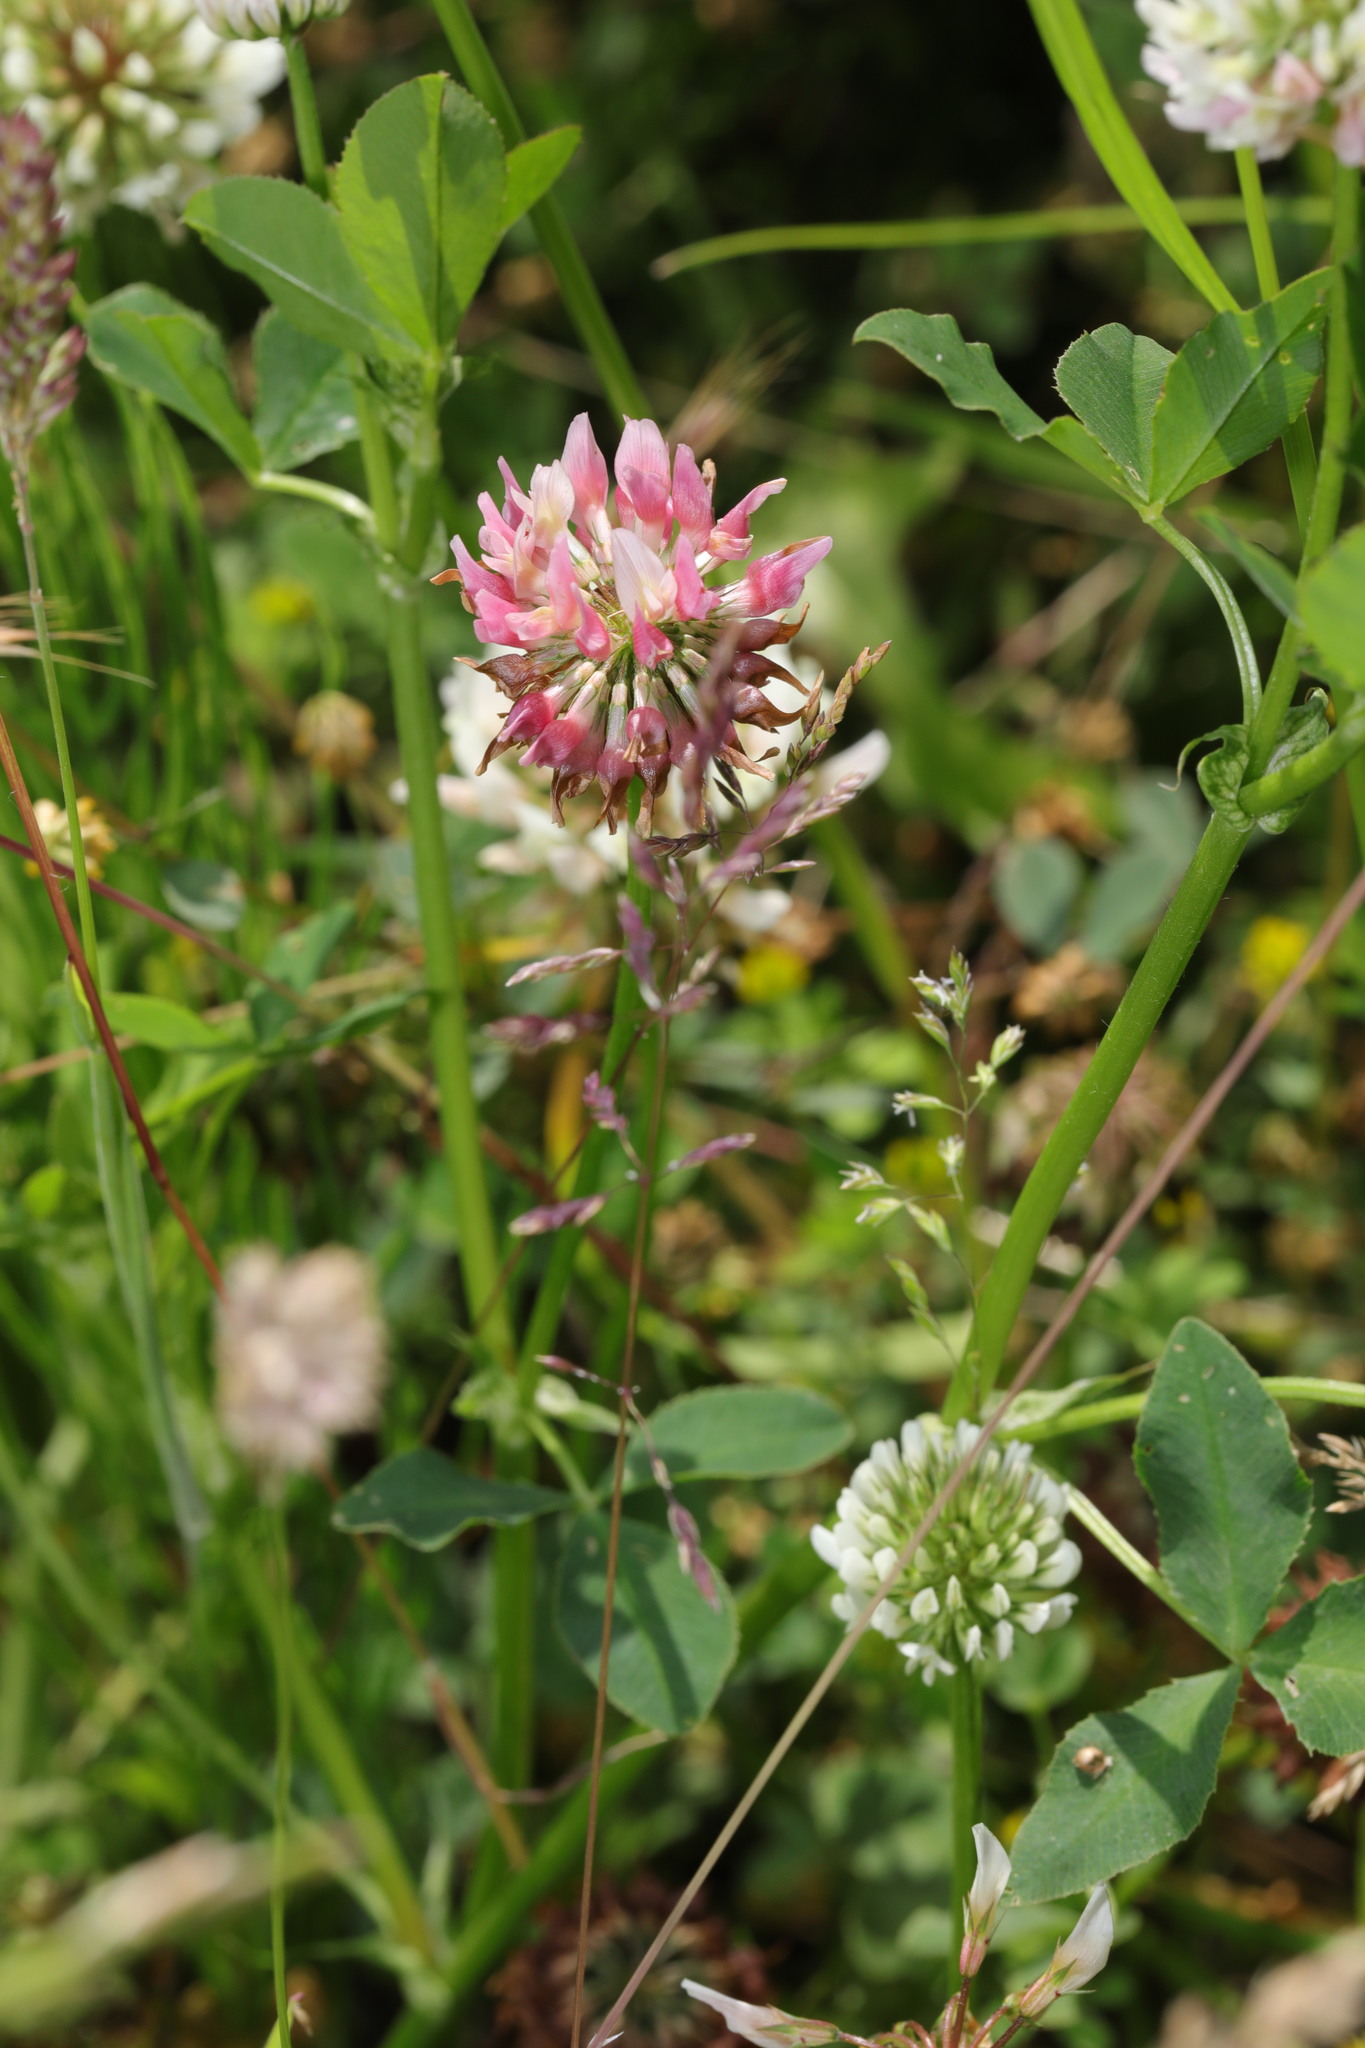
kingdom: Plantae
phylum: Tracheophyta
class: Magnoliopsida
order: Fabales
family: Fabaceae
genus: Trifolium
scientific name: Trifolium hybridum
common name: Alsike clover
